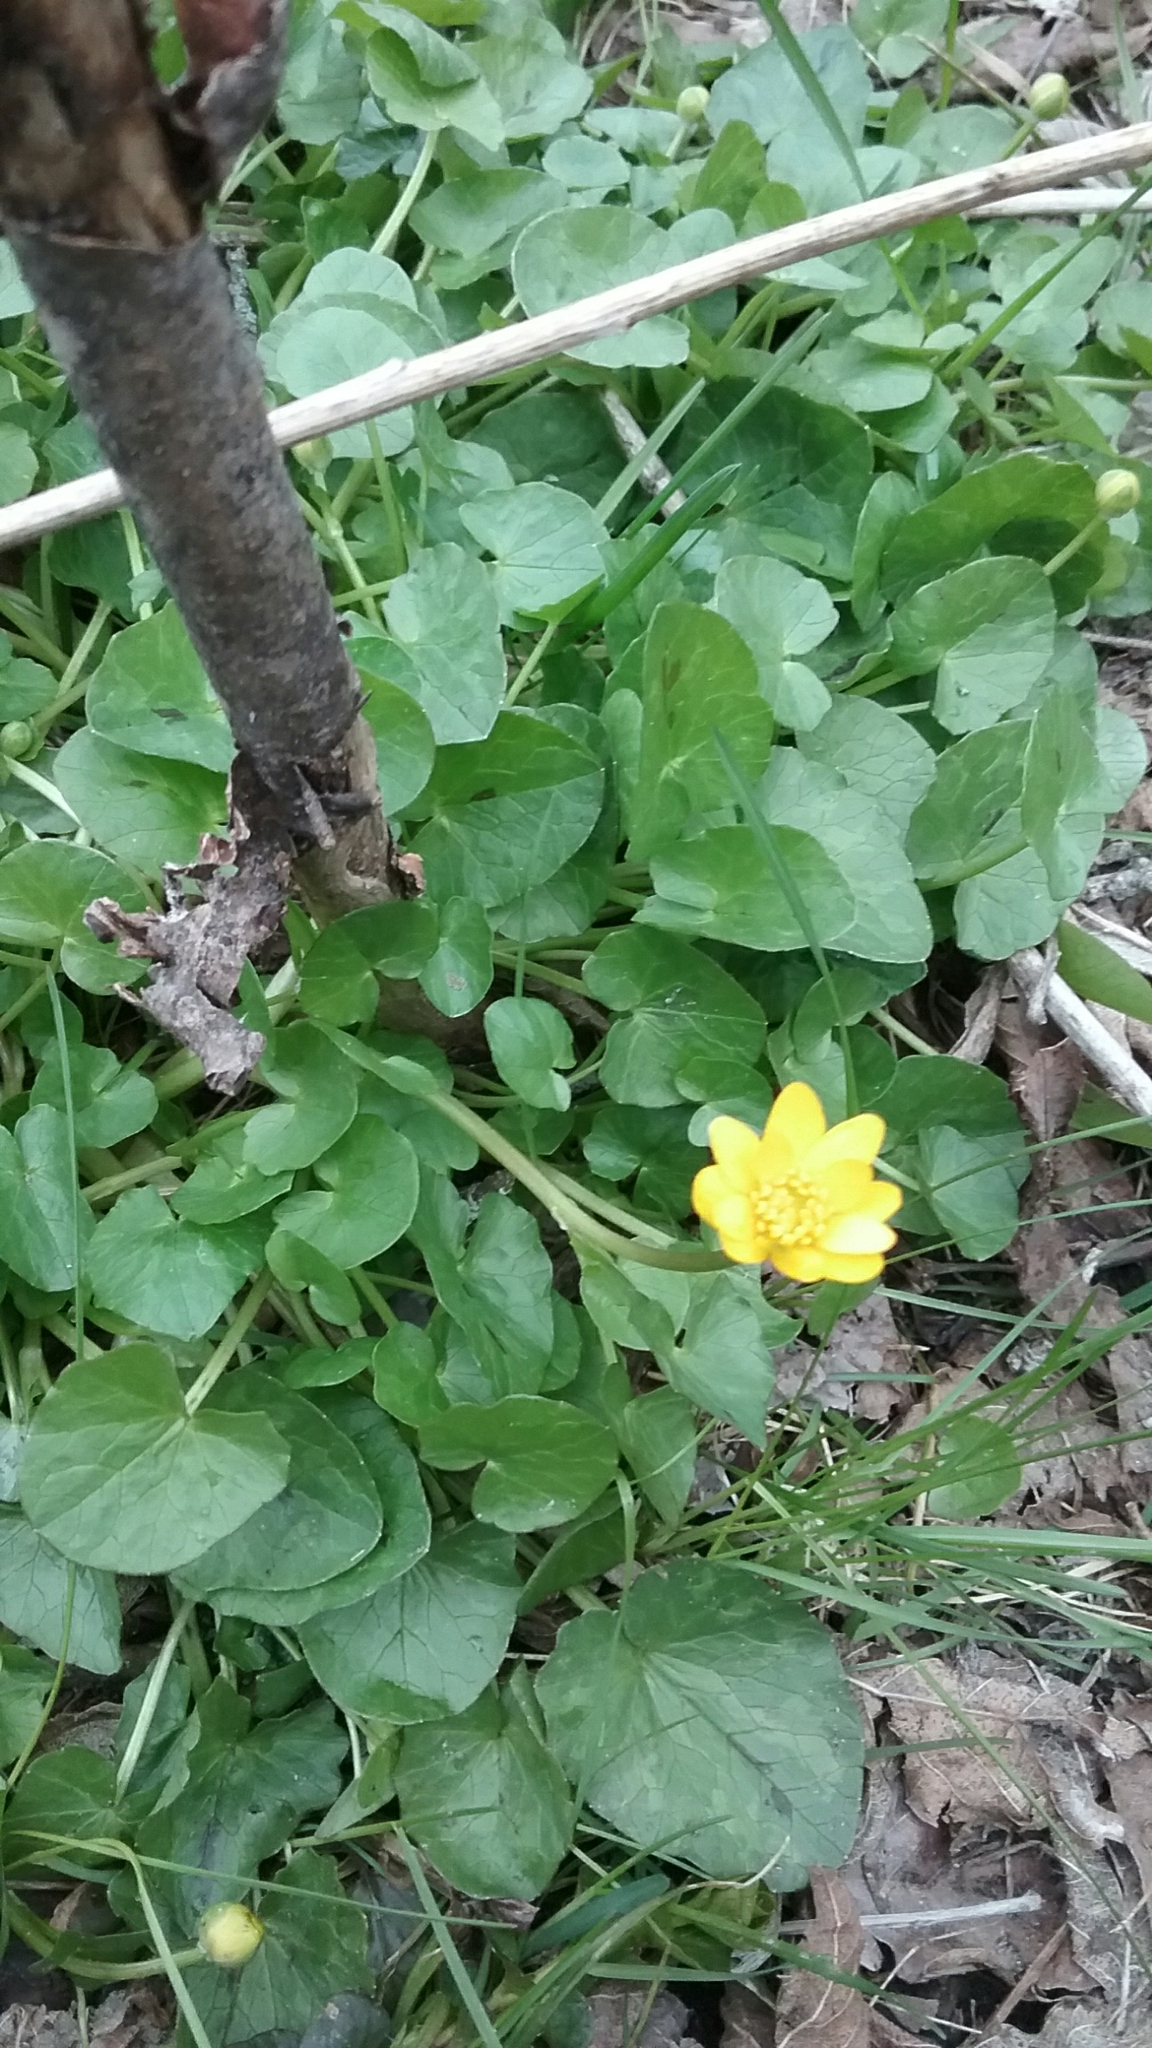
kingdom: Plantae
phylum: Tracheophyta
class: Magnoliopsida
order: Ranunculales
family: Ranunculaceae
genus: Ficaria
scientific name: Ficaria verna
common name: Lesser celandine
